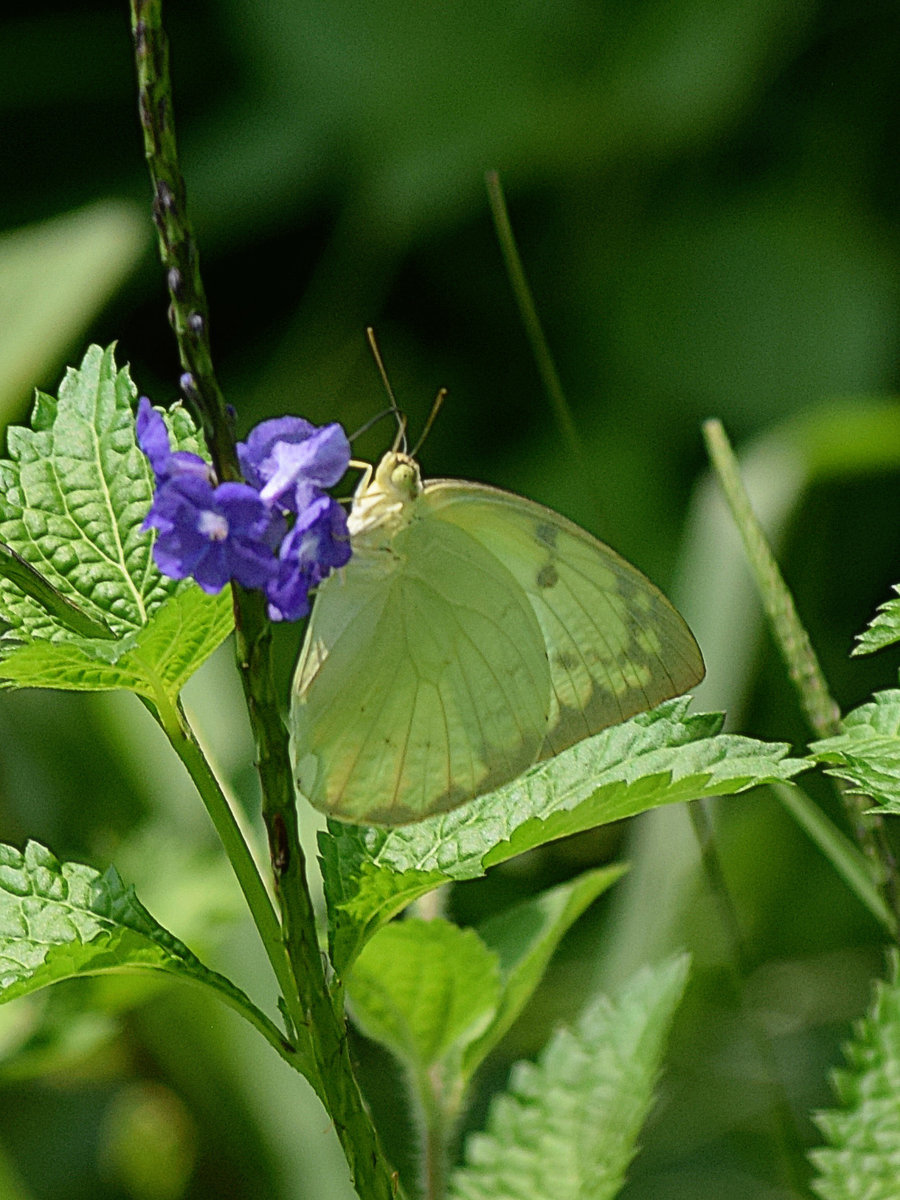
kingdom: Animalia
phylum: Arthropoda
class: Insecta
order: Lepidoptera
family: Pieridae
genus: Catopsilia
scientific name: Catopsilia pomona
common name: Common emigrant
